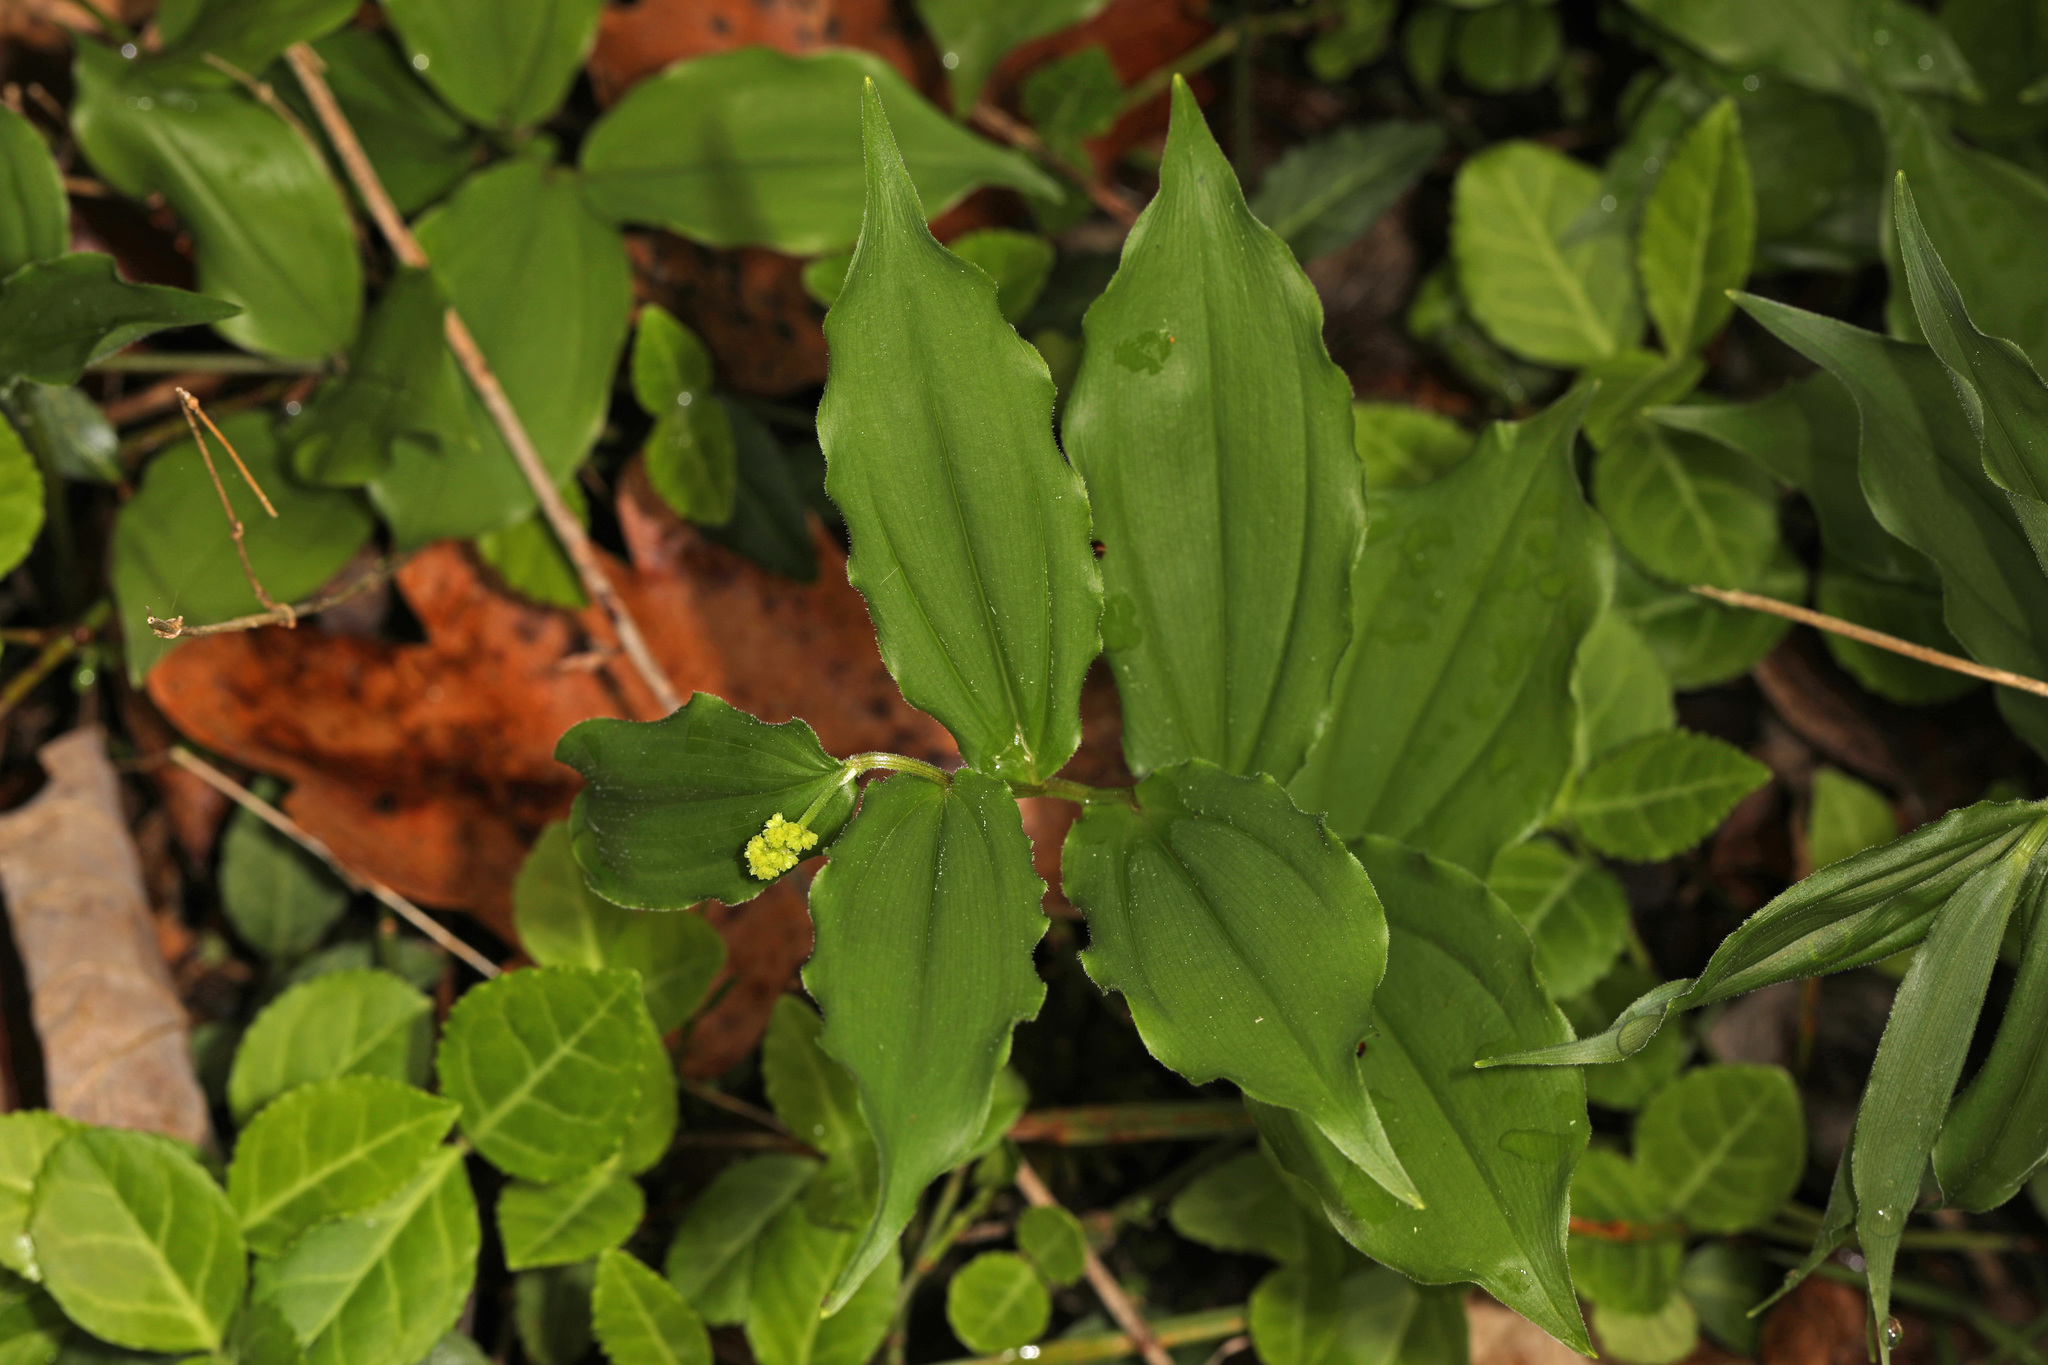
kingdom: Plantae
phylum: Tracheophyta
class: Liliopsida
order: Asparagales
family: Asparagaceae
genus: Maianthemum
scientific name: Maianthemum racemosum
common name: False spikenard
